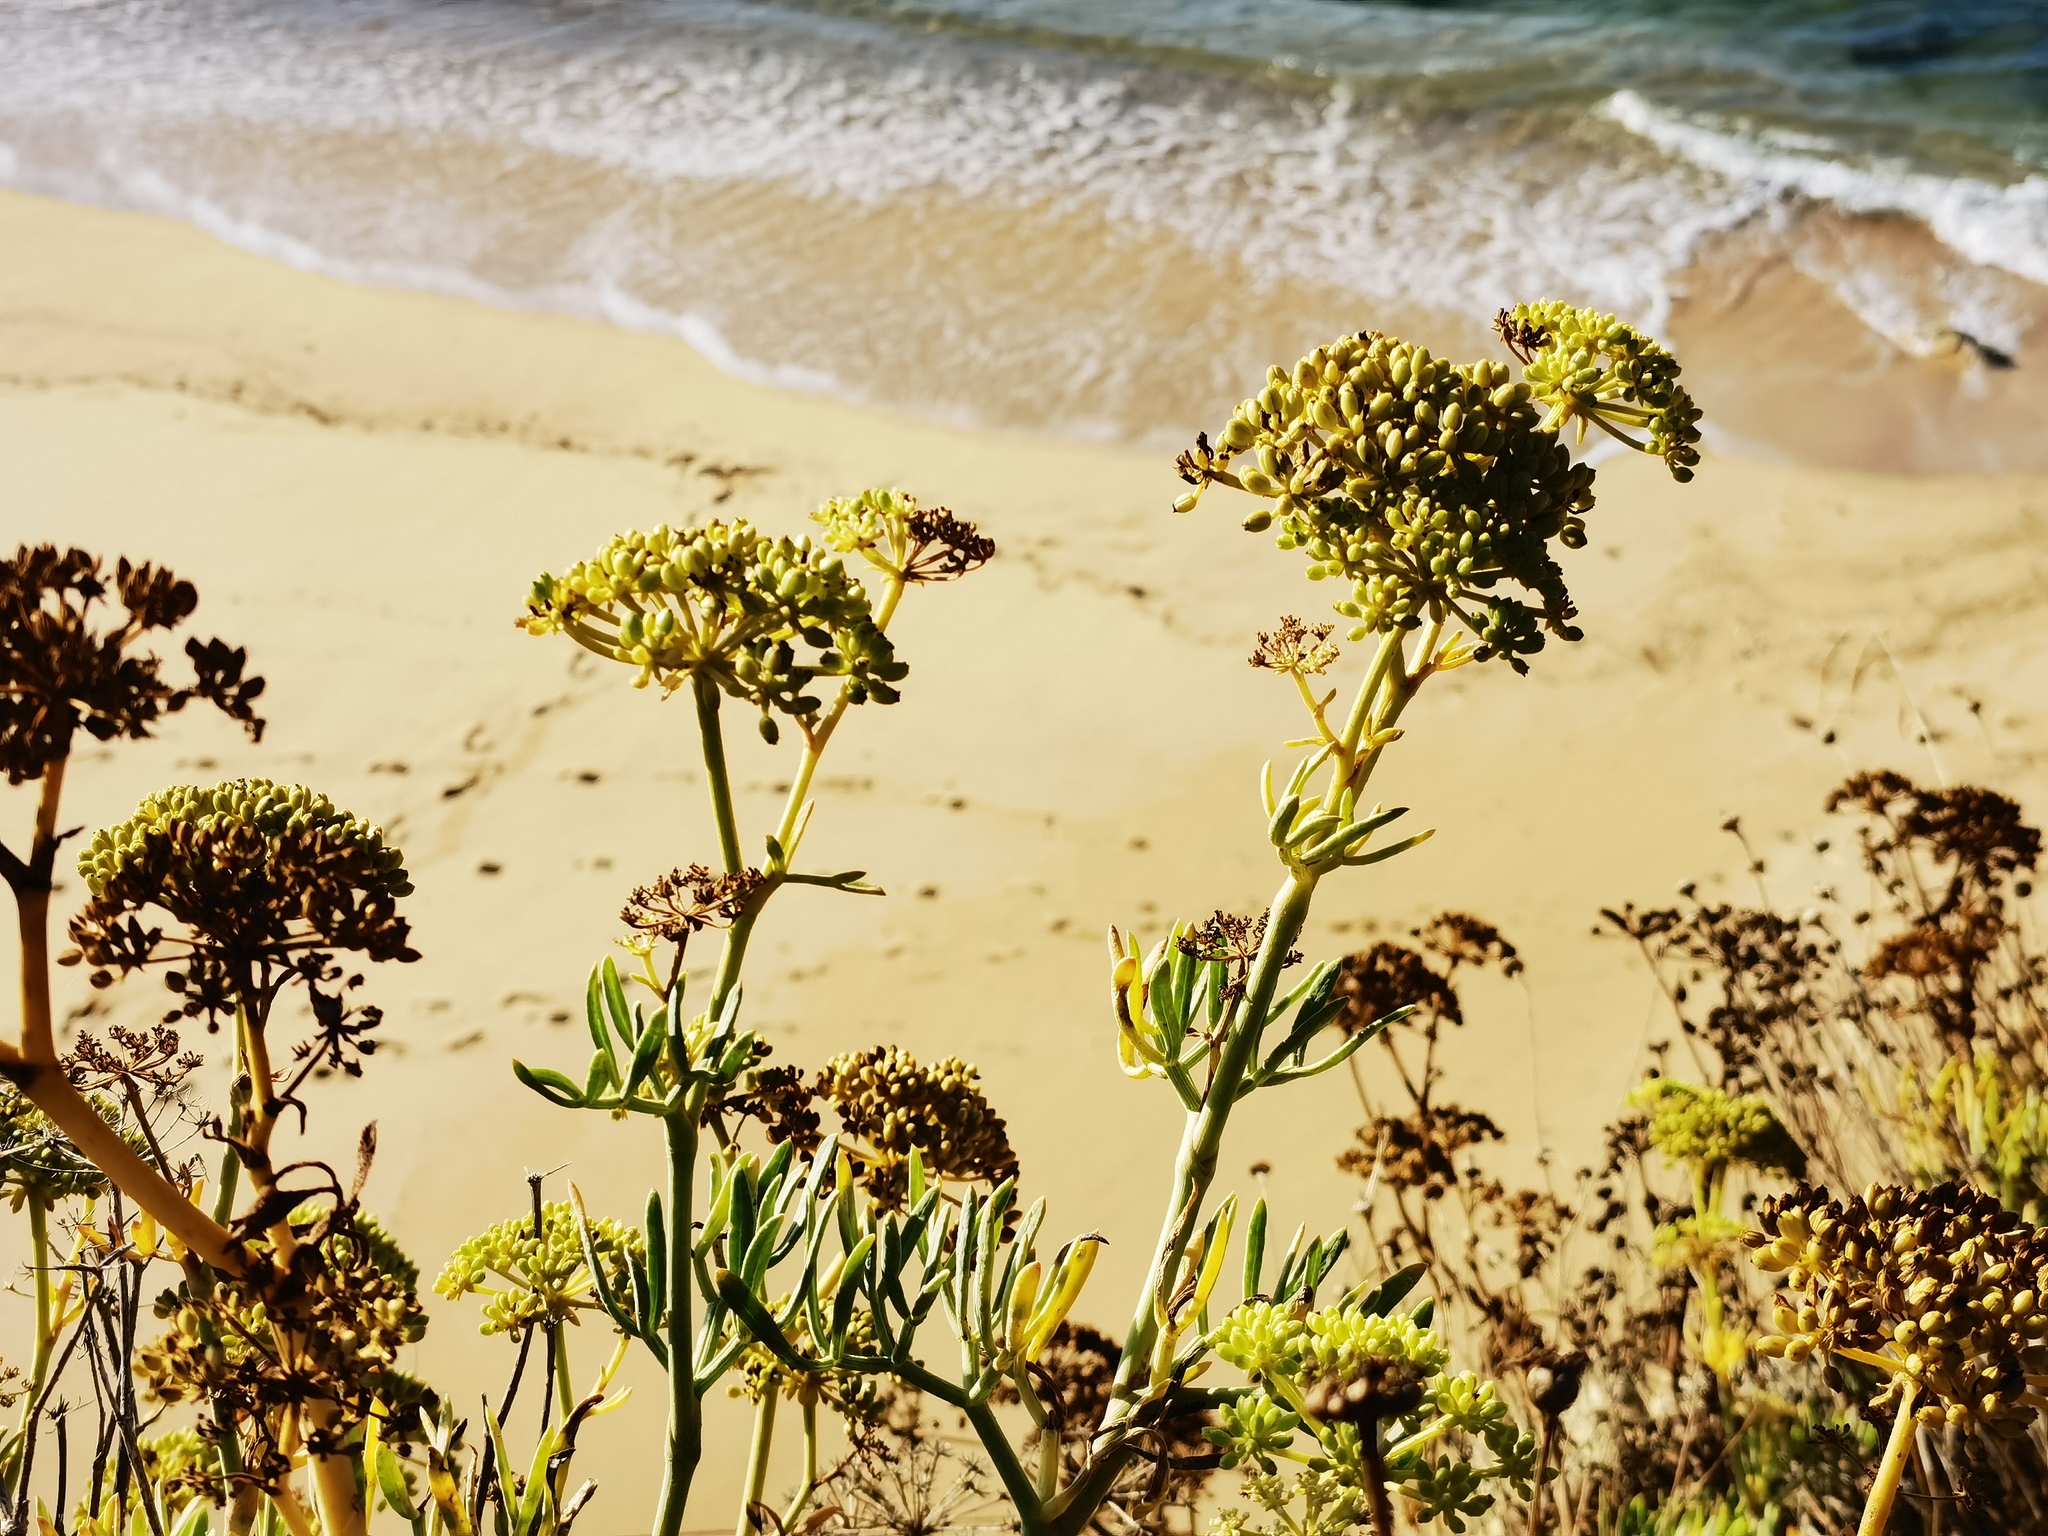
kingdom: Plantae
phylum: Tracheophyta
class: Magnoliopsida
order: Apiales
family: Apiaceae
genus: Crithmum
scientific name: Crithmum maritimum
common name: Rock samphire
